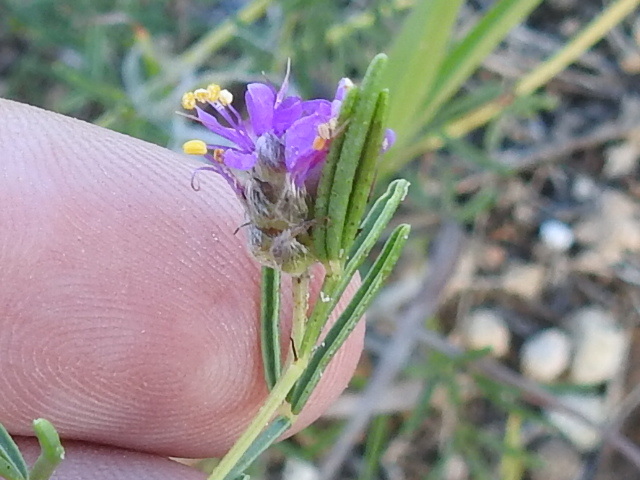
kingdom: Plantae
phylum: Tracheophyta
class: Magnoliopsida
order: Fabales
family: Fabaceae
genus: Dalea
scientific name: Dalea tenuifolia
